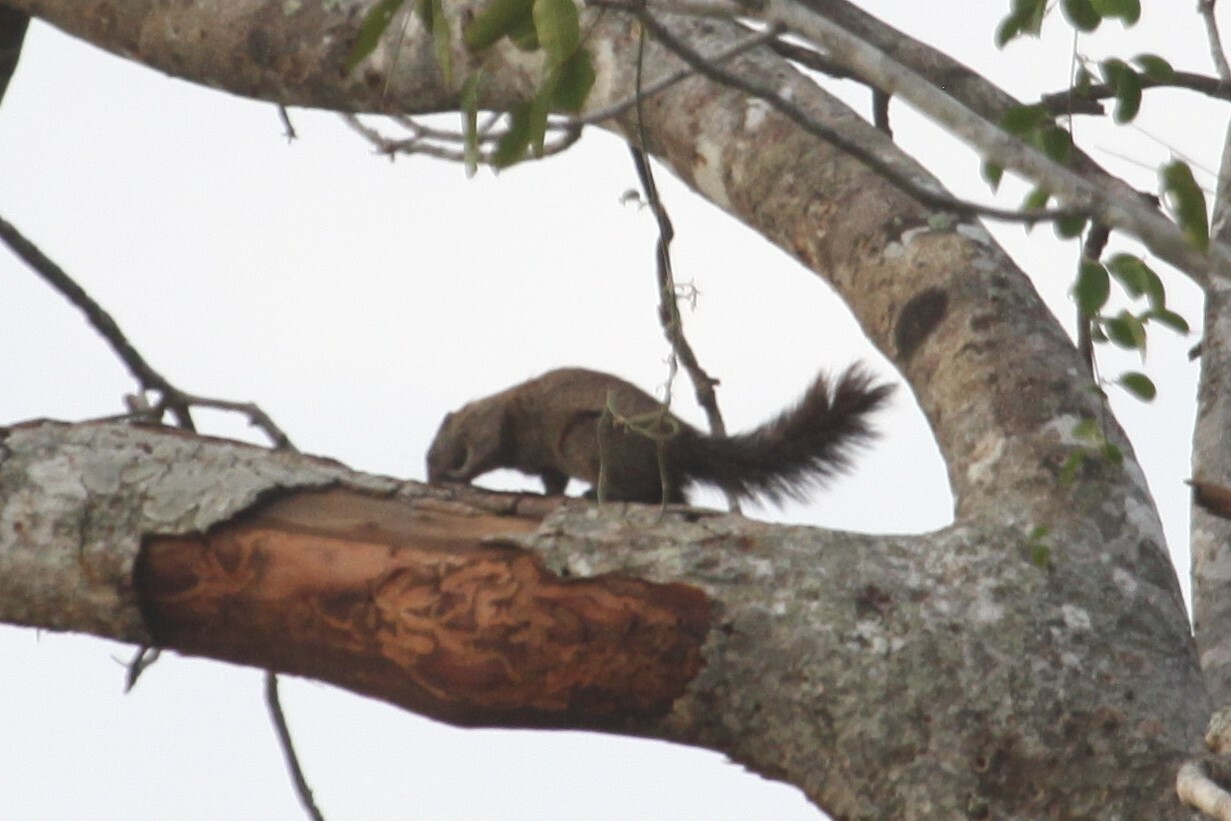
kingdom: Animalia
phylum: Chordata
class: Mammalia
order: Rodentia
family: Sciuridae
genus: Heliosciurus
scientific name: Heliosciurus mutabilis
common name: Mutable sun squirrel
